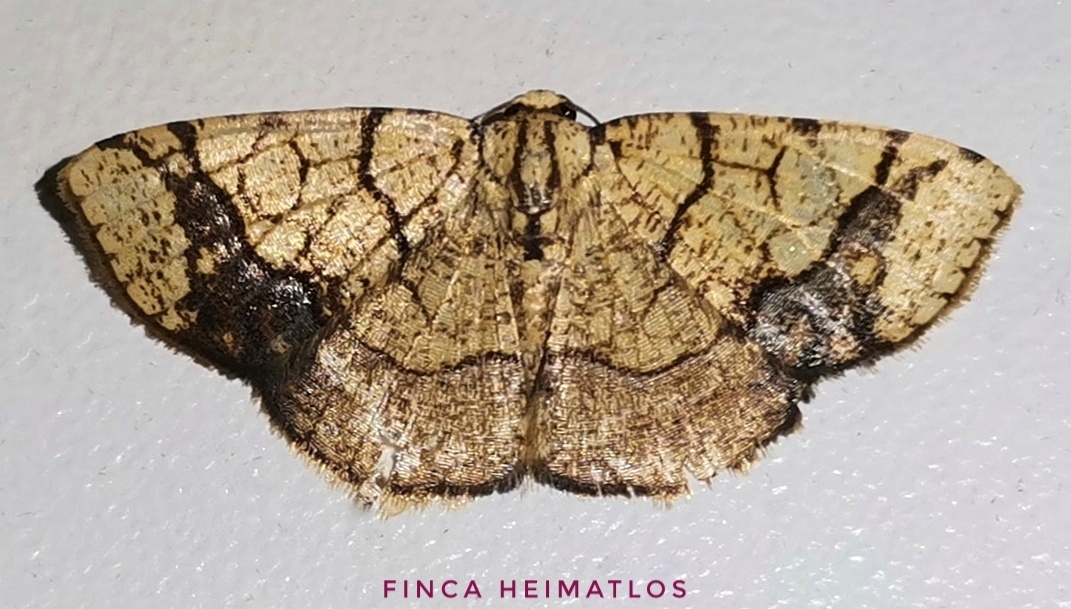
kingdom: Animalia
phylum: Arthropoda
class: Insecta
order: Lepidoptera
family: Geometridae
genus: Nematocampa
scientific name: Nematocampa straminea
